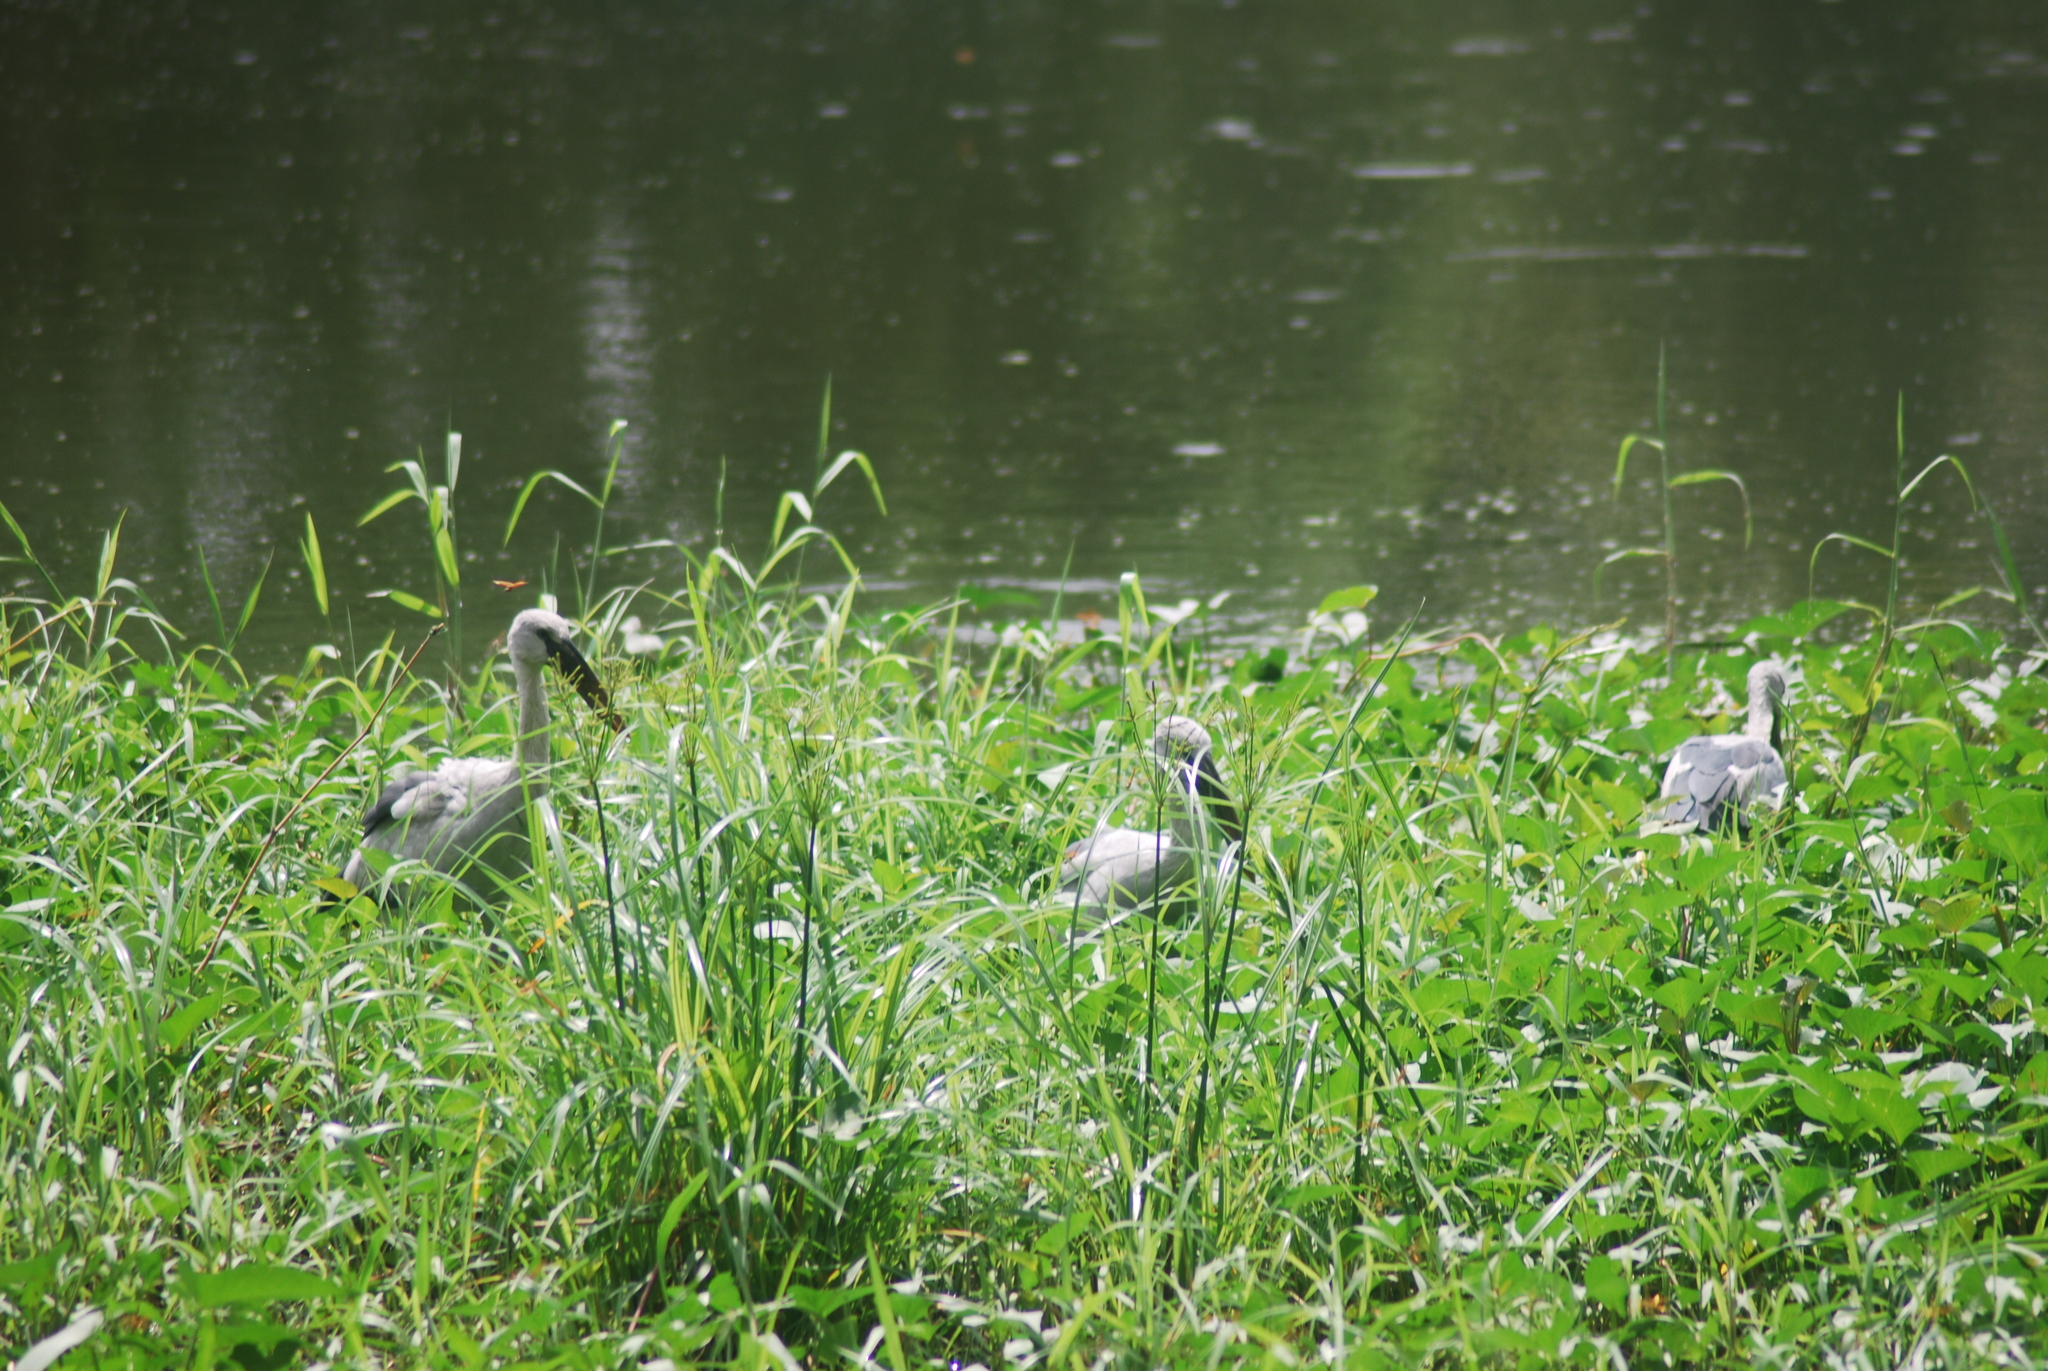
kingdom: Animalia
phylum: Chordata
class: Aves
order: Ciconiiformes
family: Ciconiidae
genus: Anastomus
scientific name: Anastomus oscitans
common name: Asian openbill
